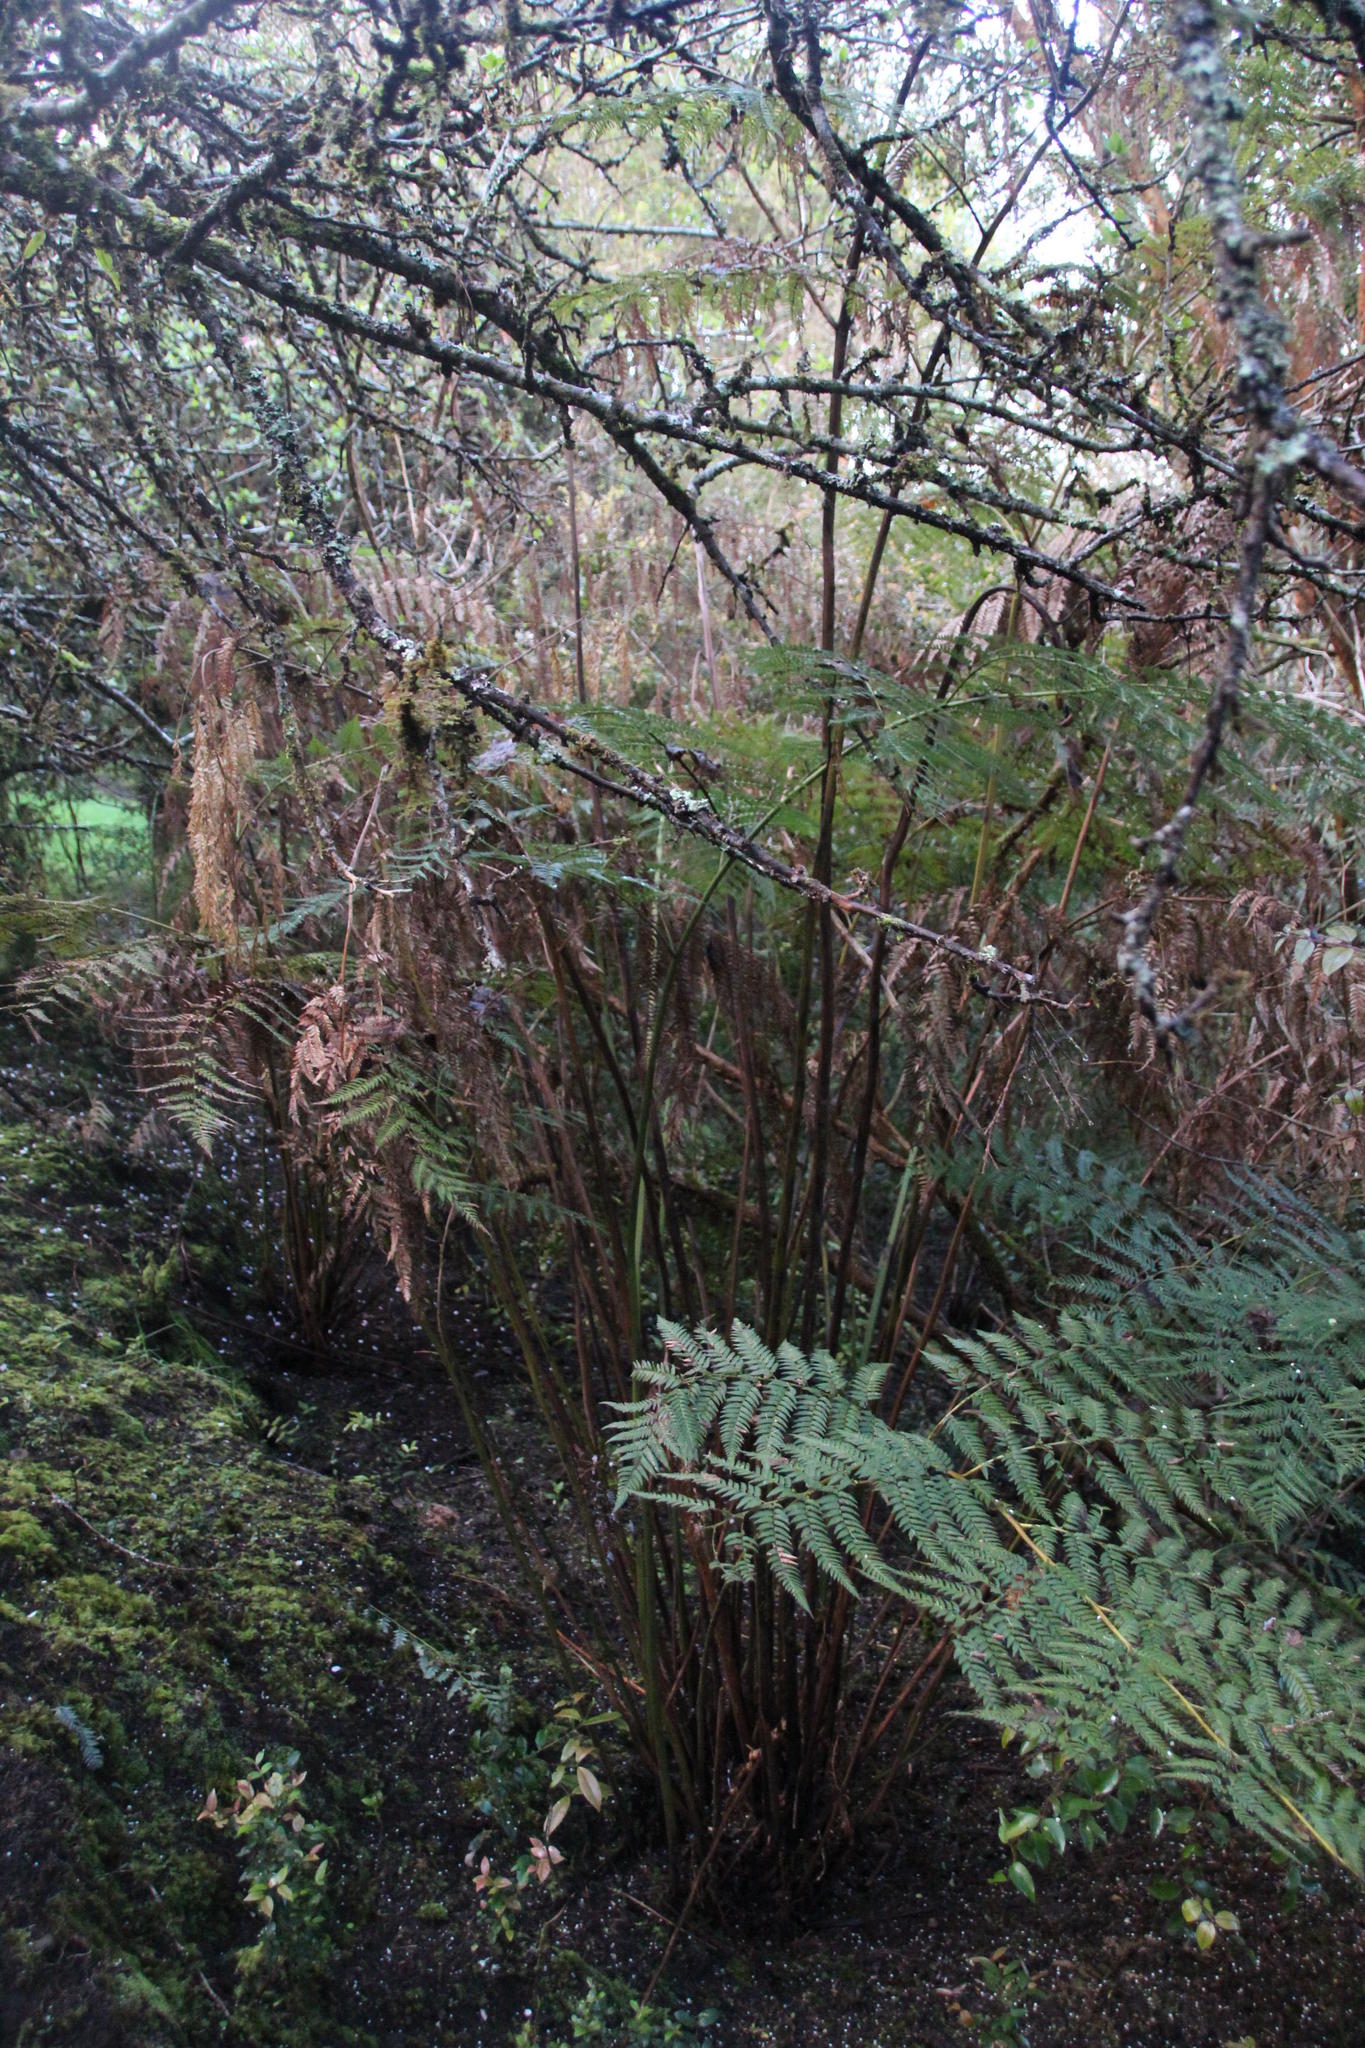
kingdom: Plantae
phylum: Tracheophyta
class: Polypodiopsida
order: Cyatheales
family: Dicksoniaceae
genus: Lophosoria
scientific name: Lophosoria quadripinnata
